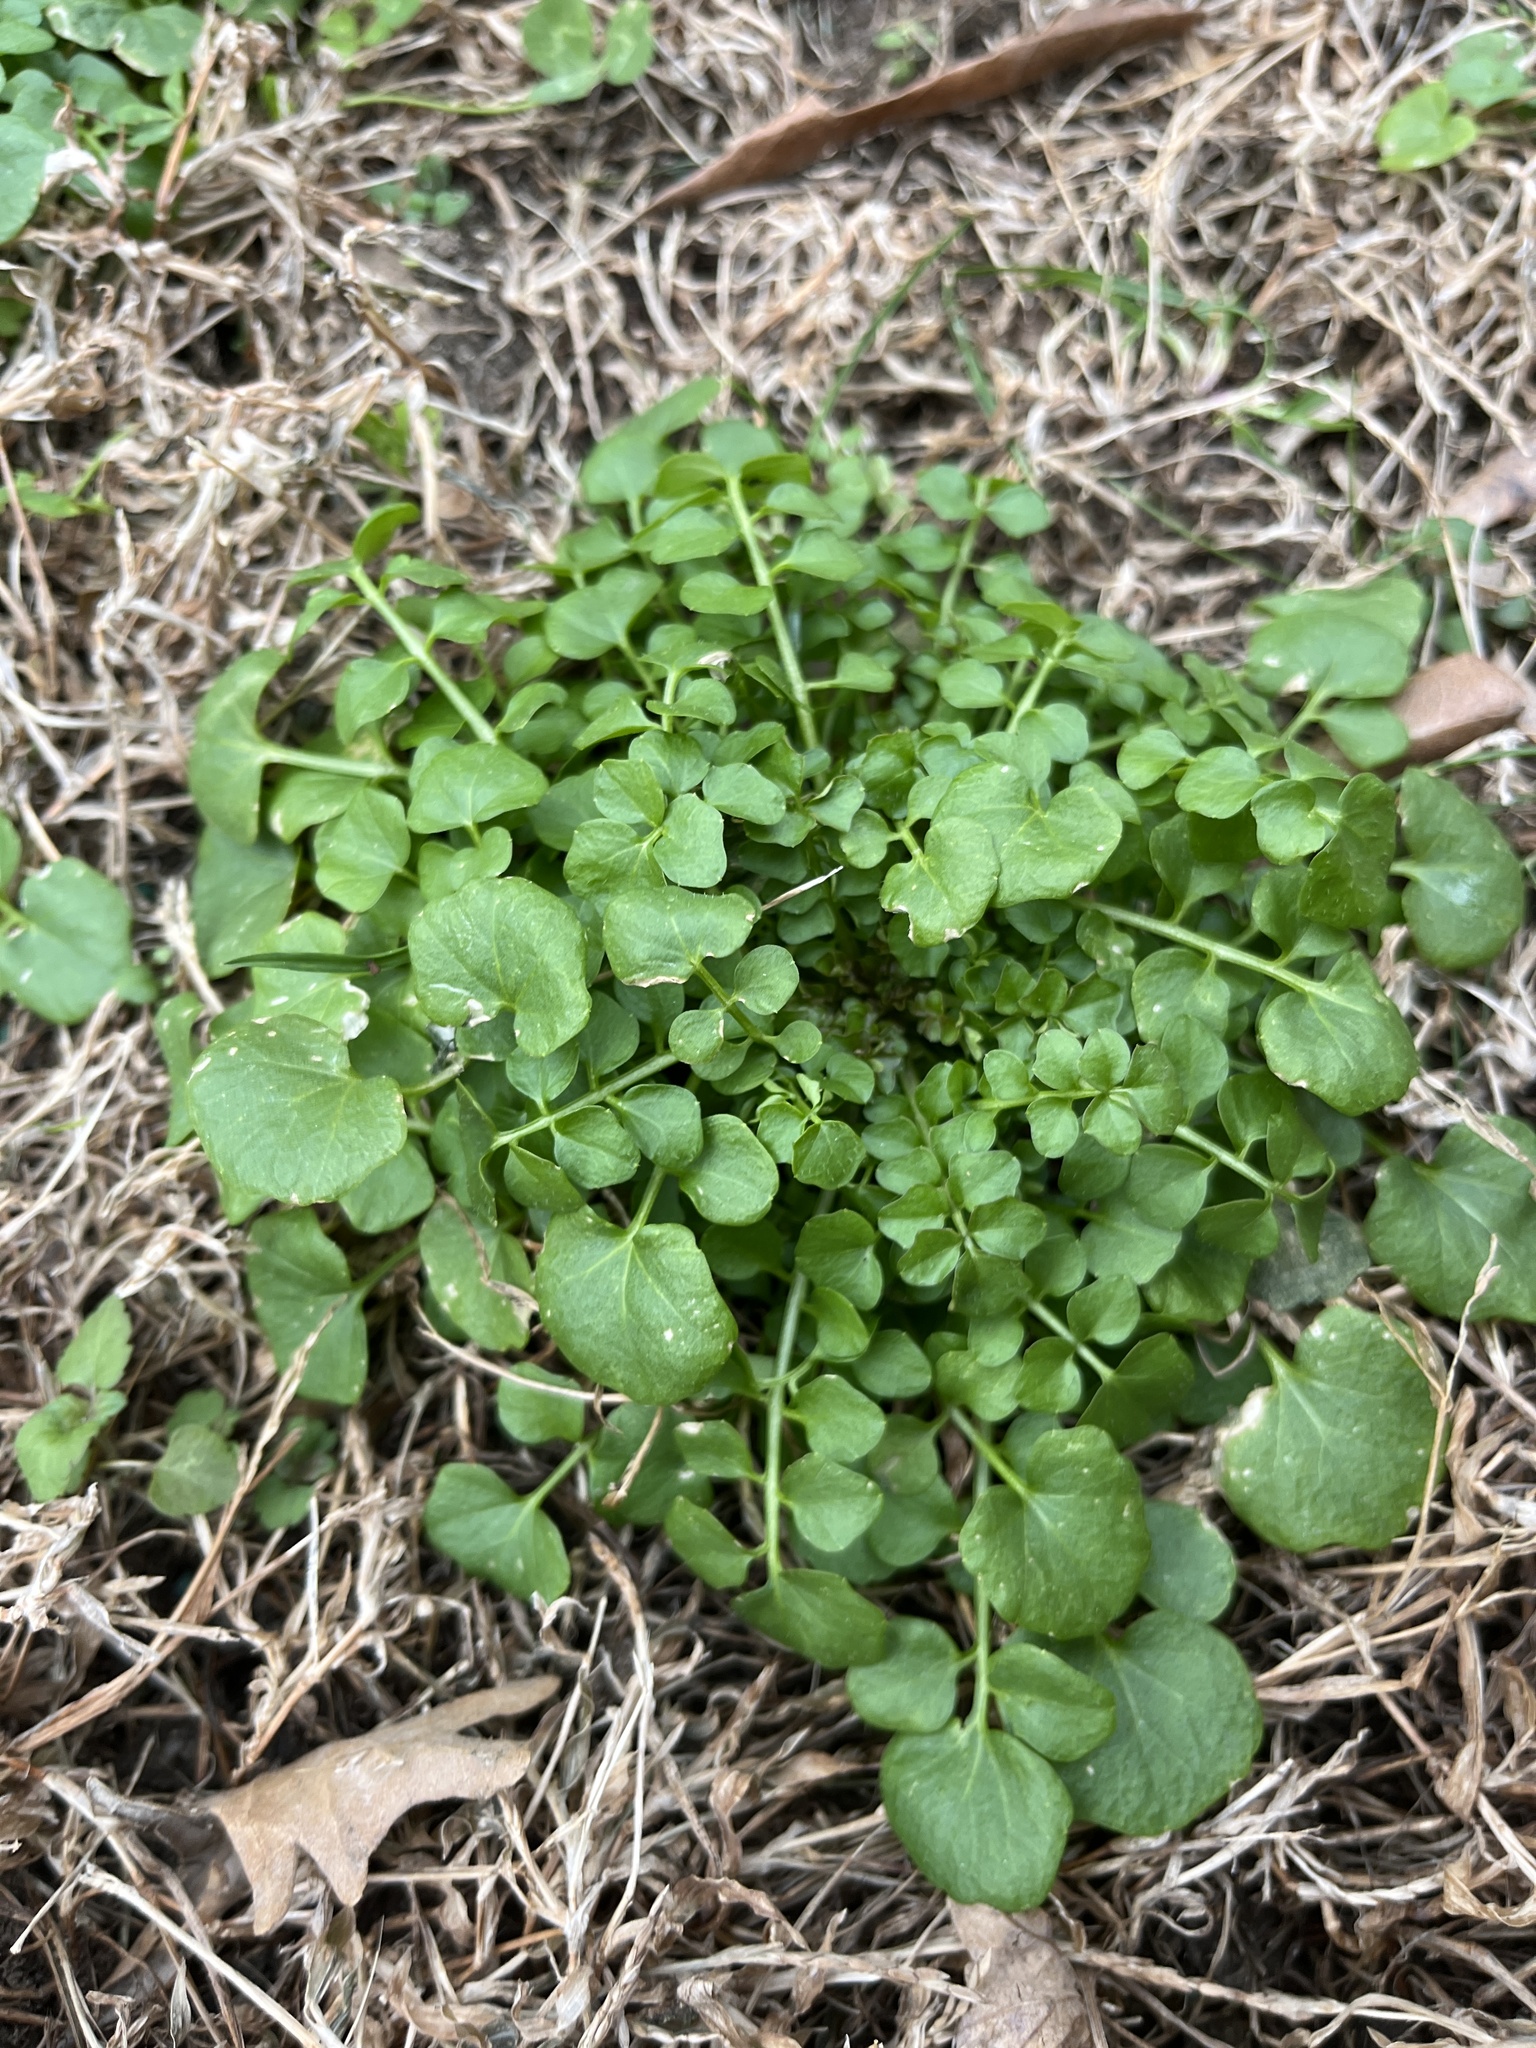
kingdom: Plantae
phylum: Tracheophyta
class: Magnoliopsida
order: Brassicales
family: Brassicaceae
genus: Cardamine
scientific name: Cardamine hirsuta
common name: Hairy bittercress
